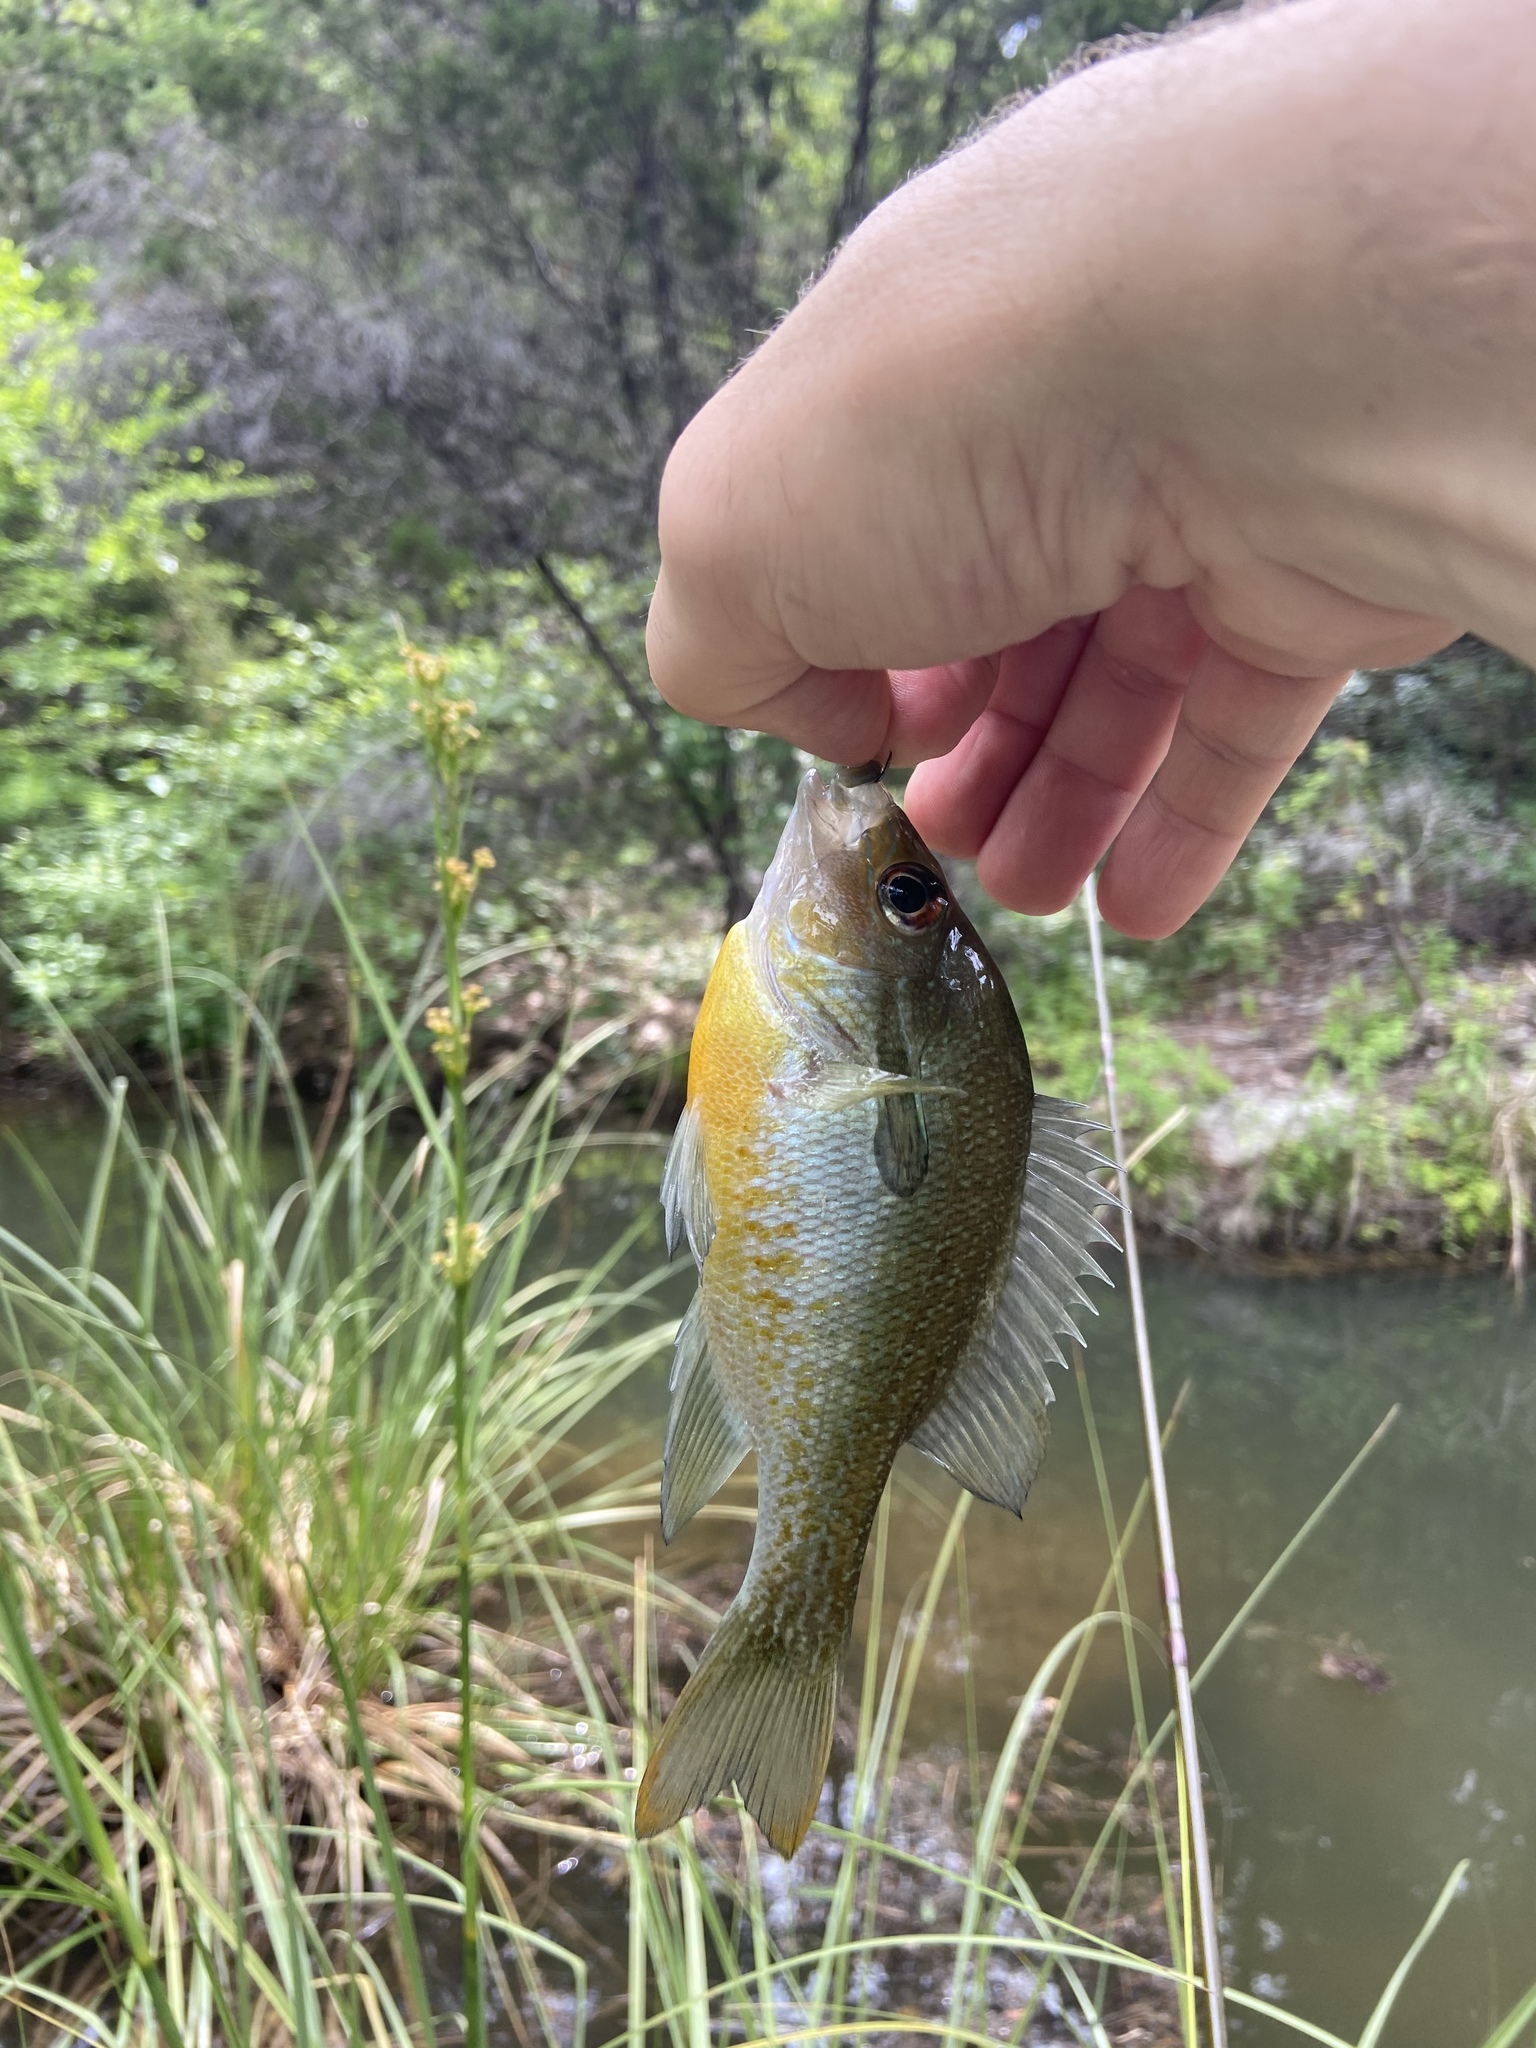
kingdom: Animalia
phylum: Chordata
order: Perciformes
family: Centrarchidae
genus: Lepomis
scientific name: Lepomis auritus
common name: Redbreast sunfish
